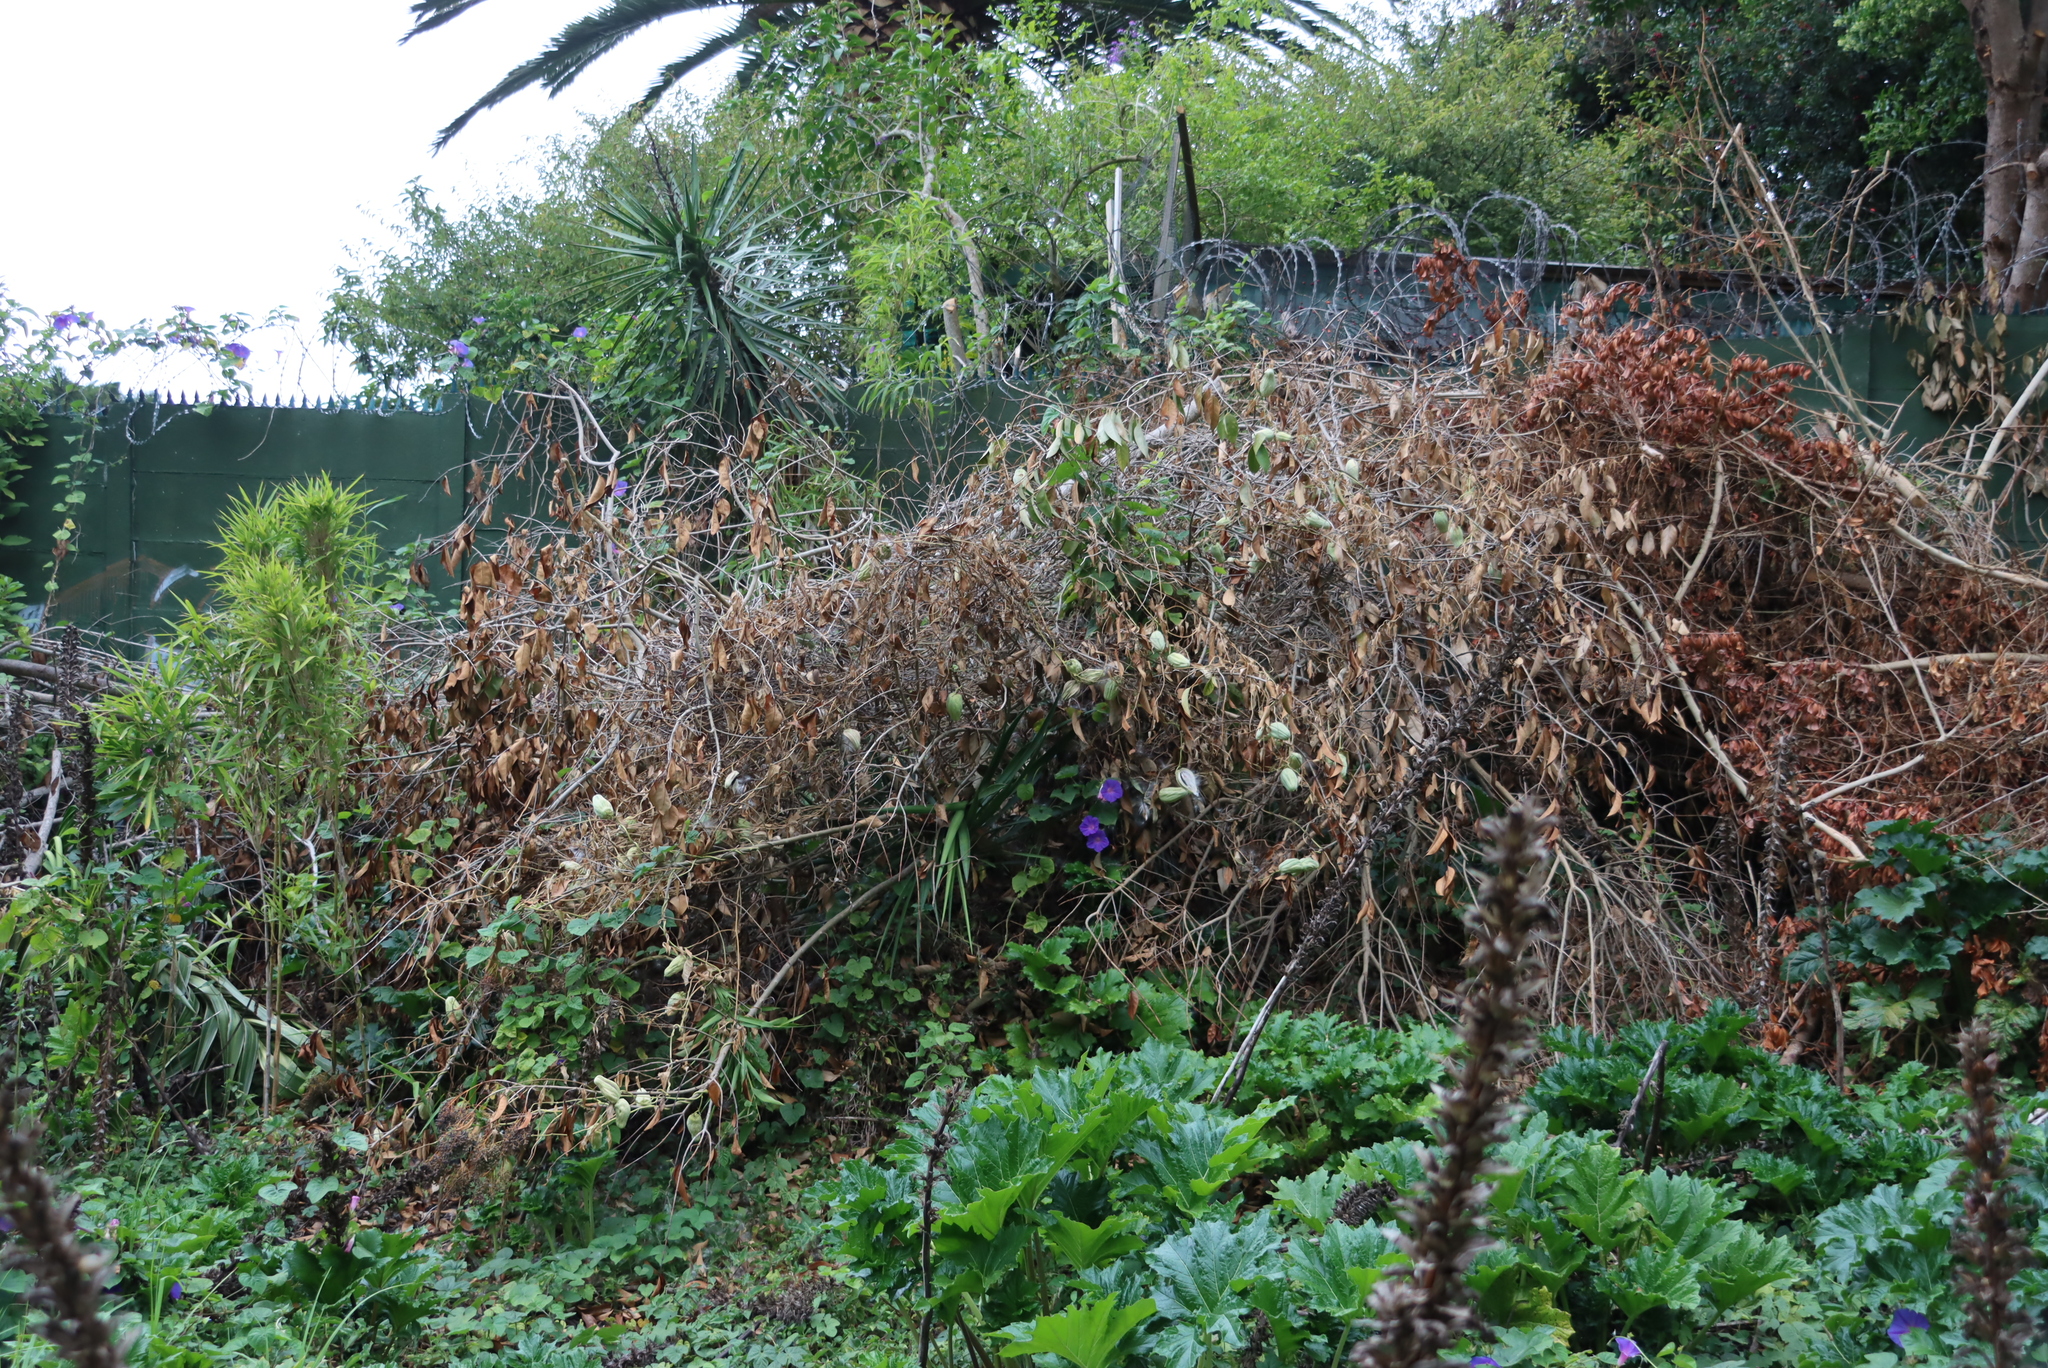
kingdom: Plantae
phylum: Tracheophyta
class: Magnoliopsida
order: Gentianales
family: Apocynaceae
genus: Araujia
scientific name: Araujia sericifera
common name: White bladderflower
